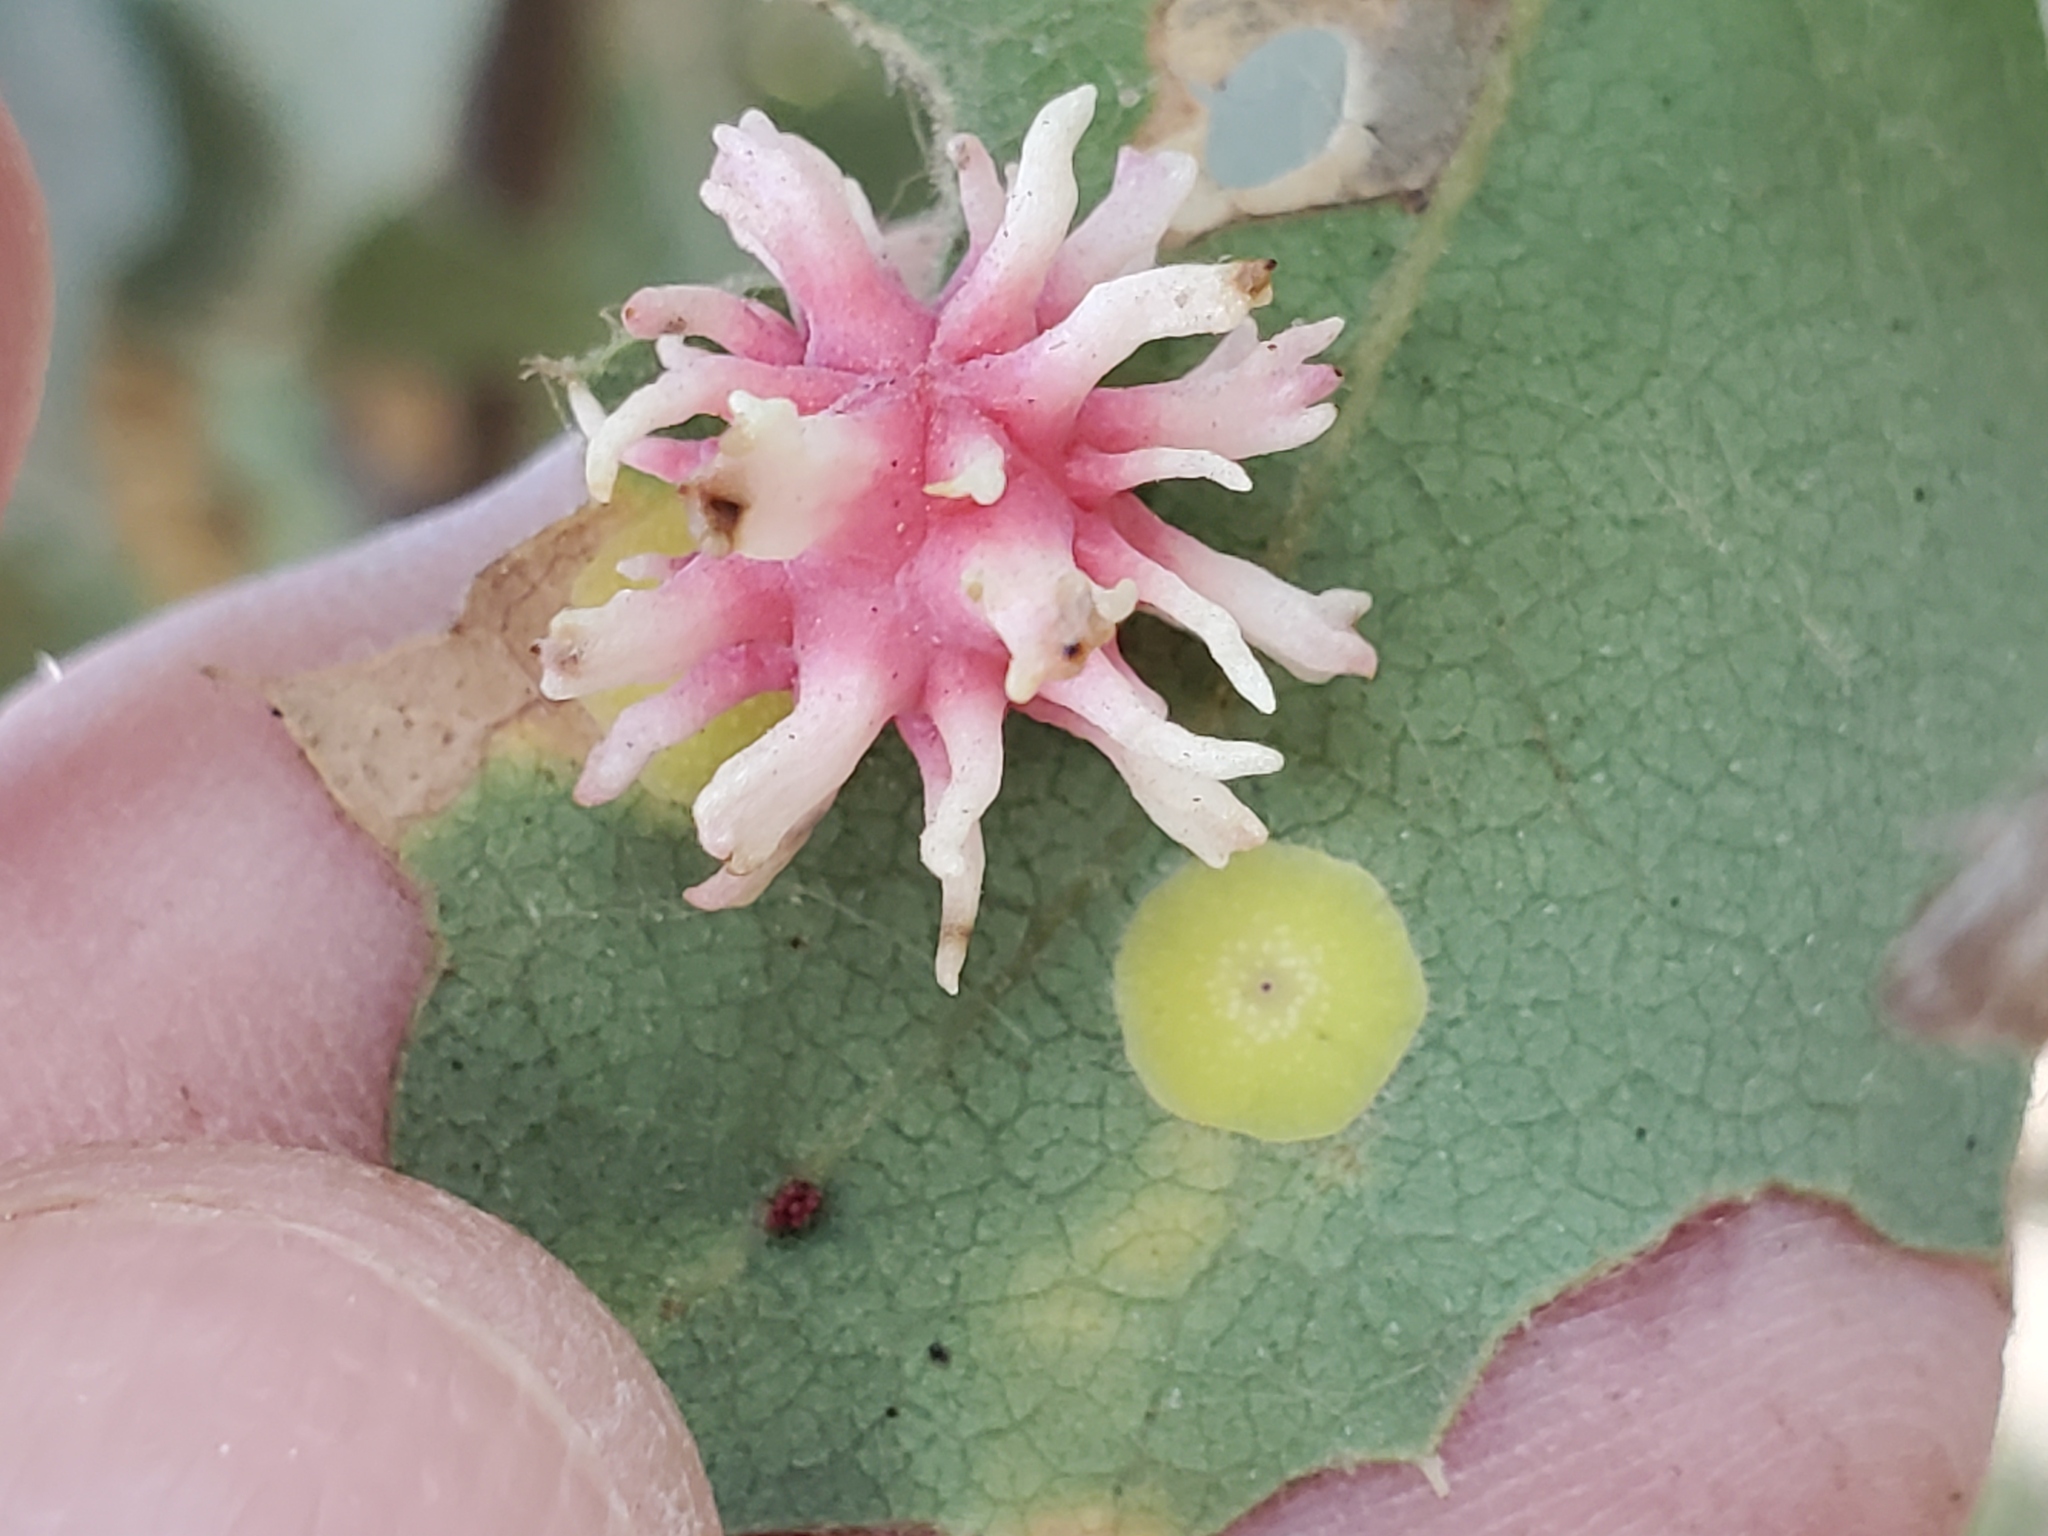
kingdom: Animalia
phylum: Arthropoda
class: Insecta
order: Hymenoptera
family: Cynipidae
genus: Cynips
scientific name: Cynips
